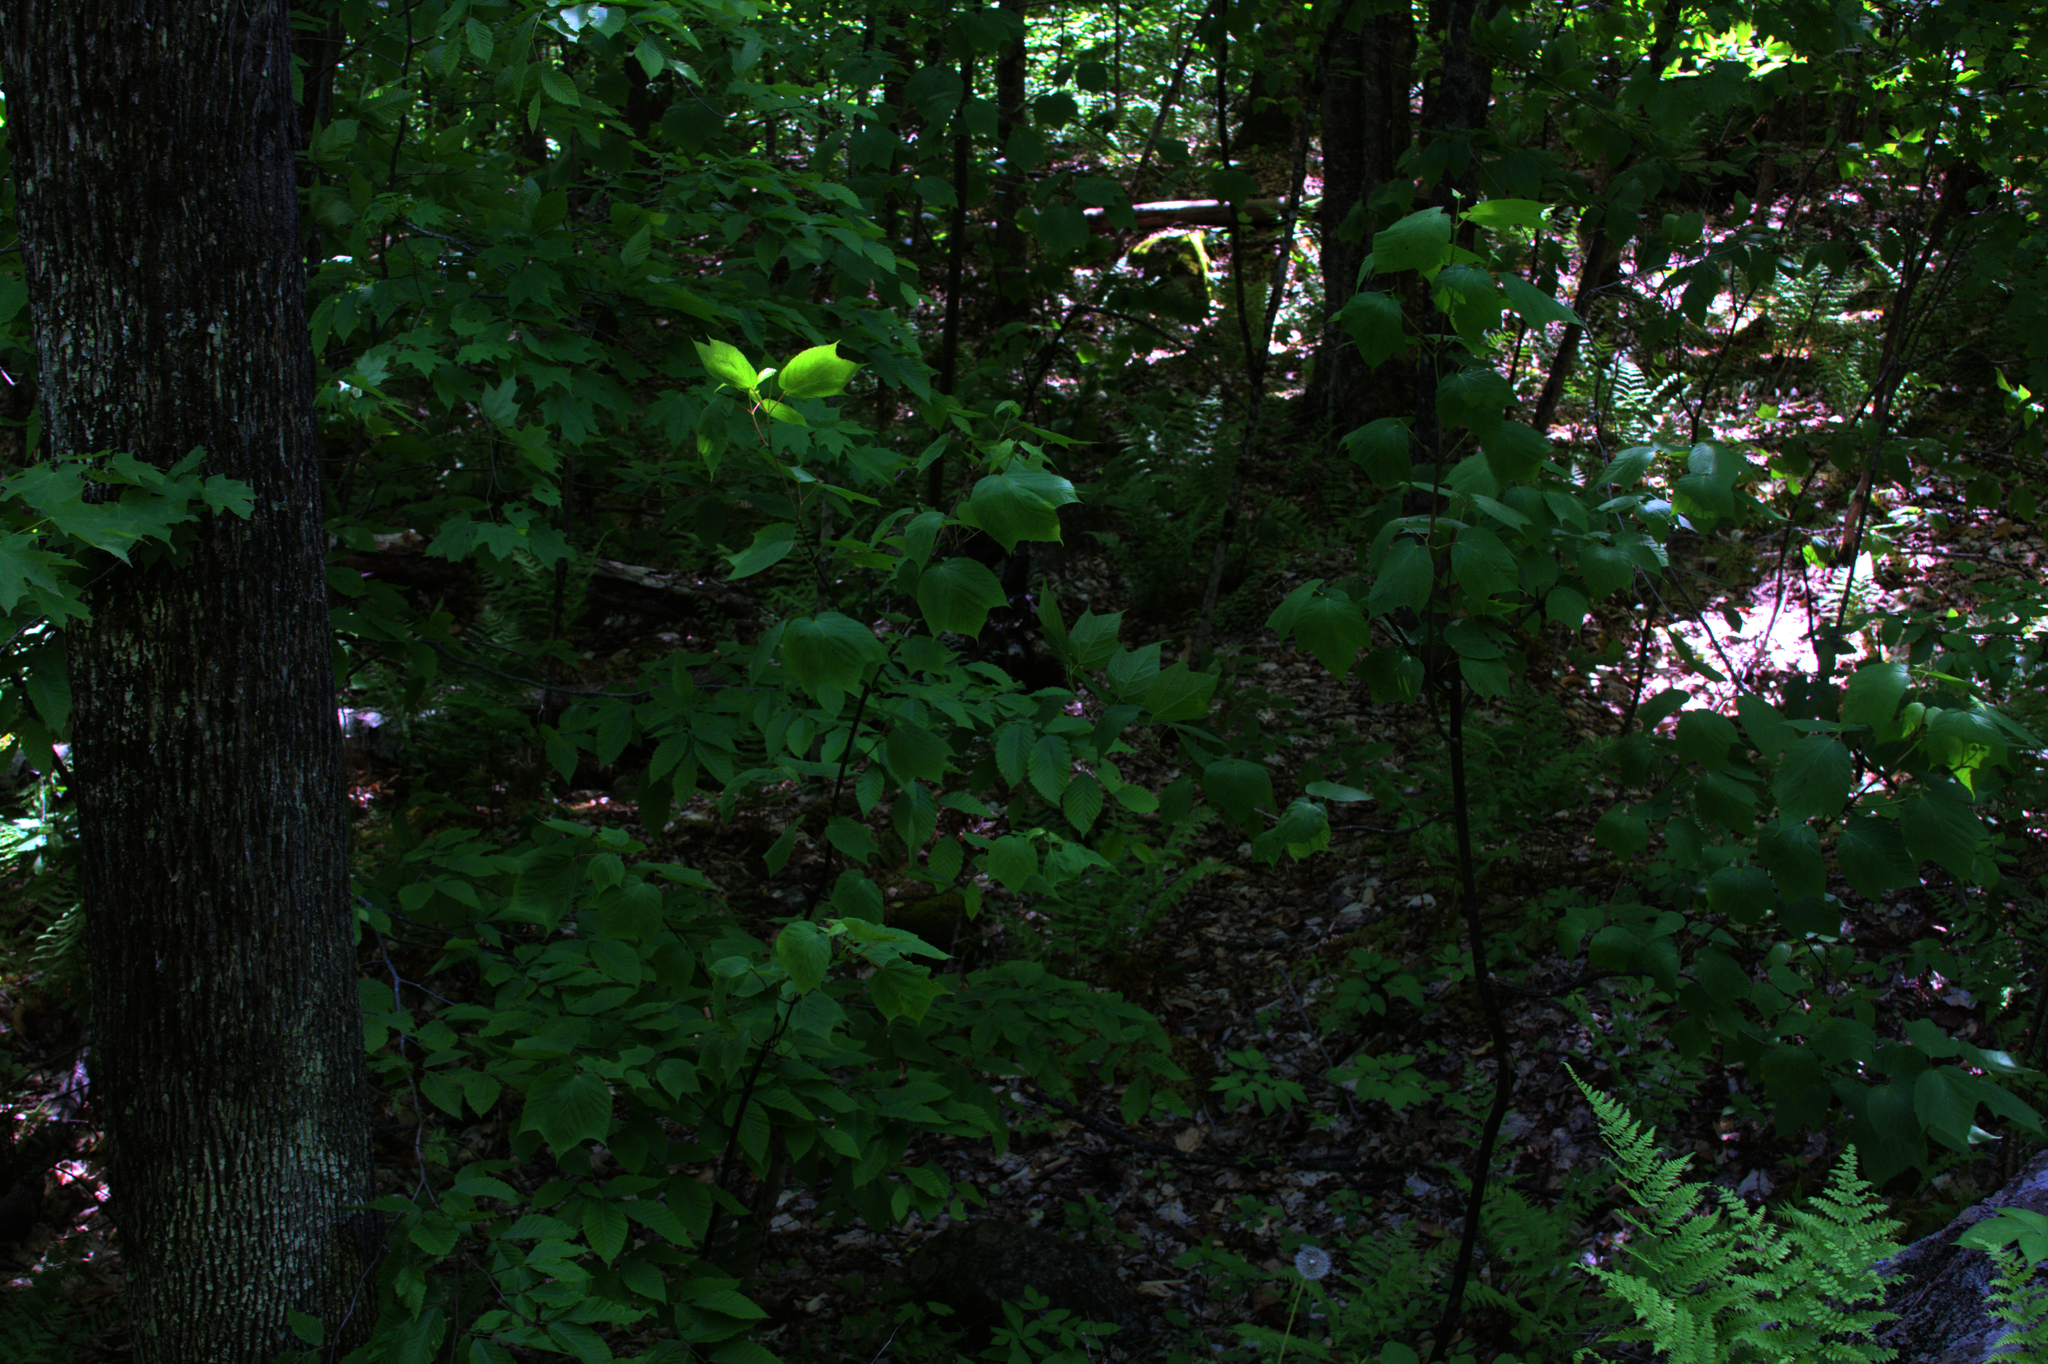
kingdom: Plantae
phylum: Tracheophyta
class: Magnoliopsida
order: Sapindales
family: Sapindaceae
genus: Acer
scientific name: Acer pensylvanicum
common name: Moosewood
